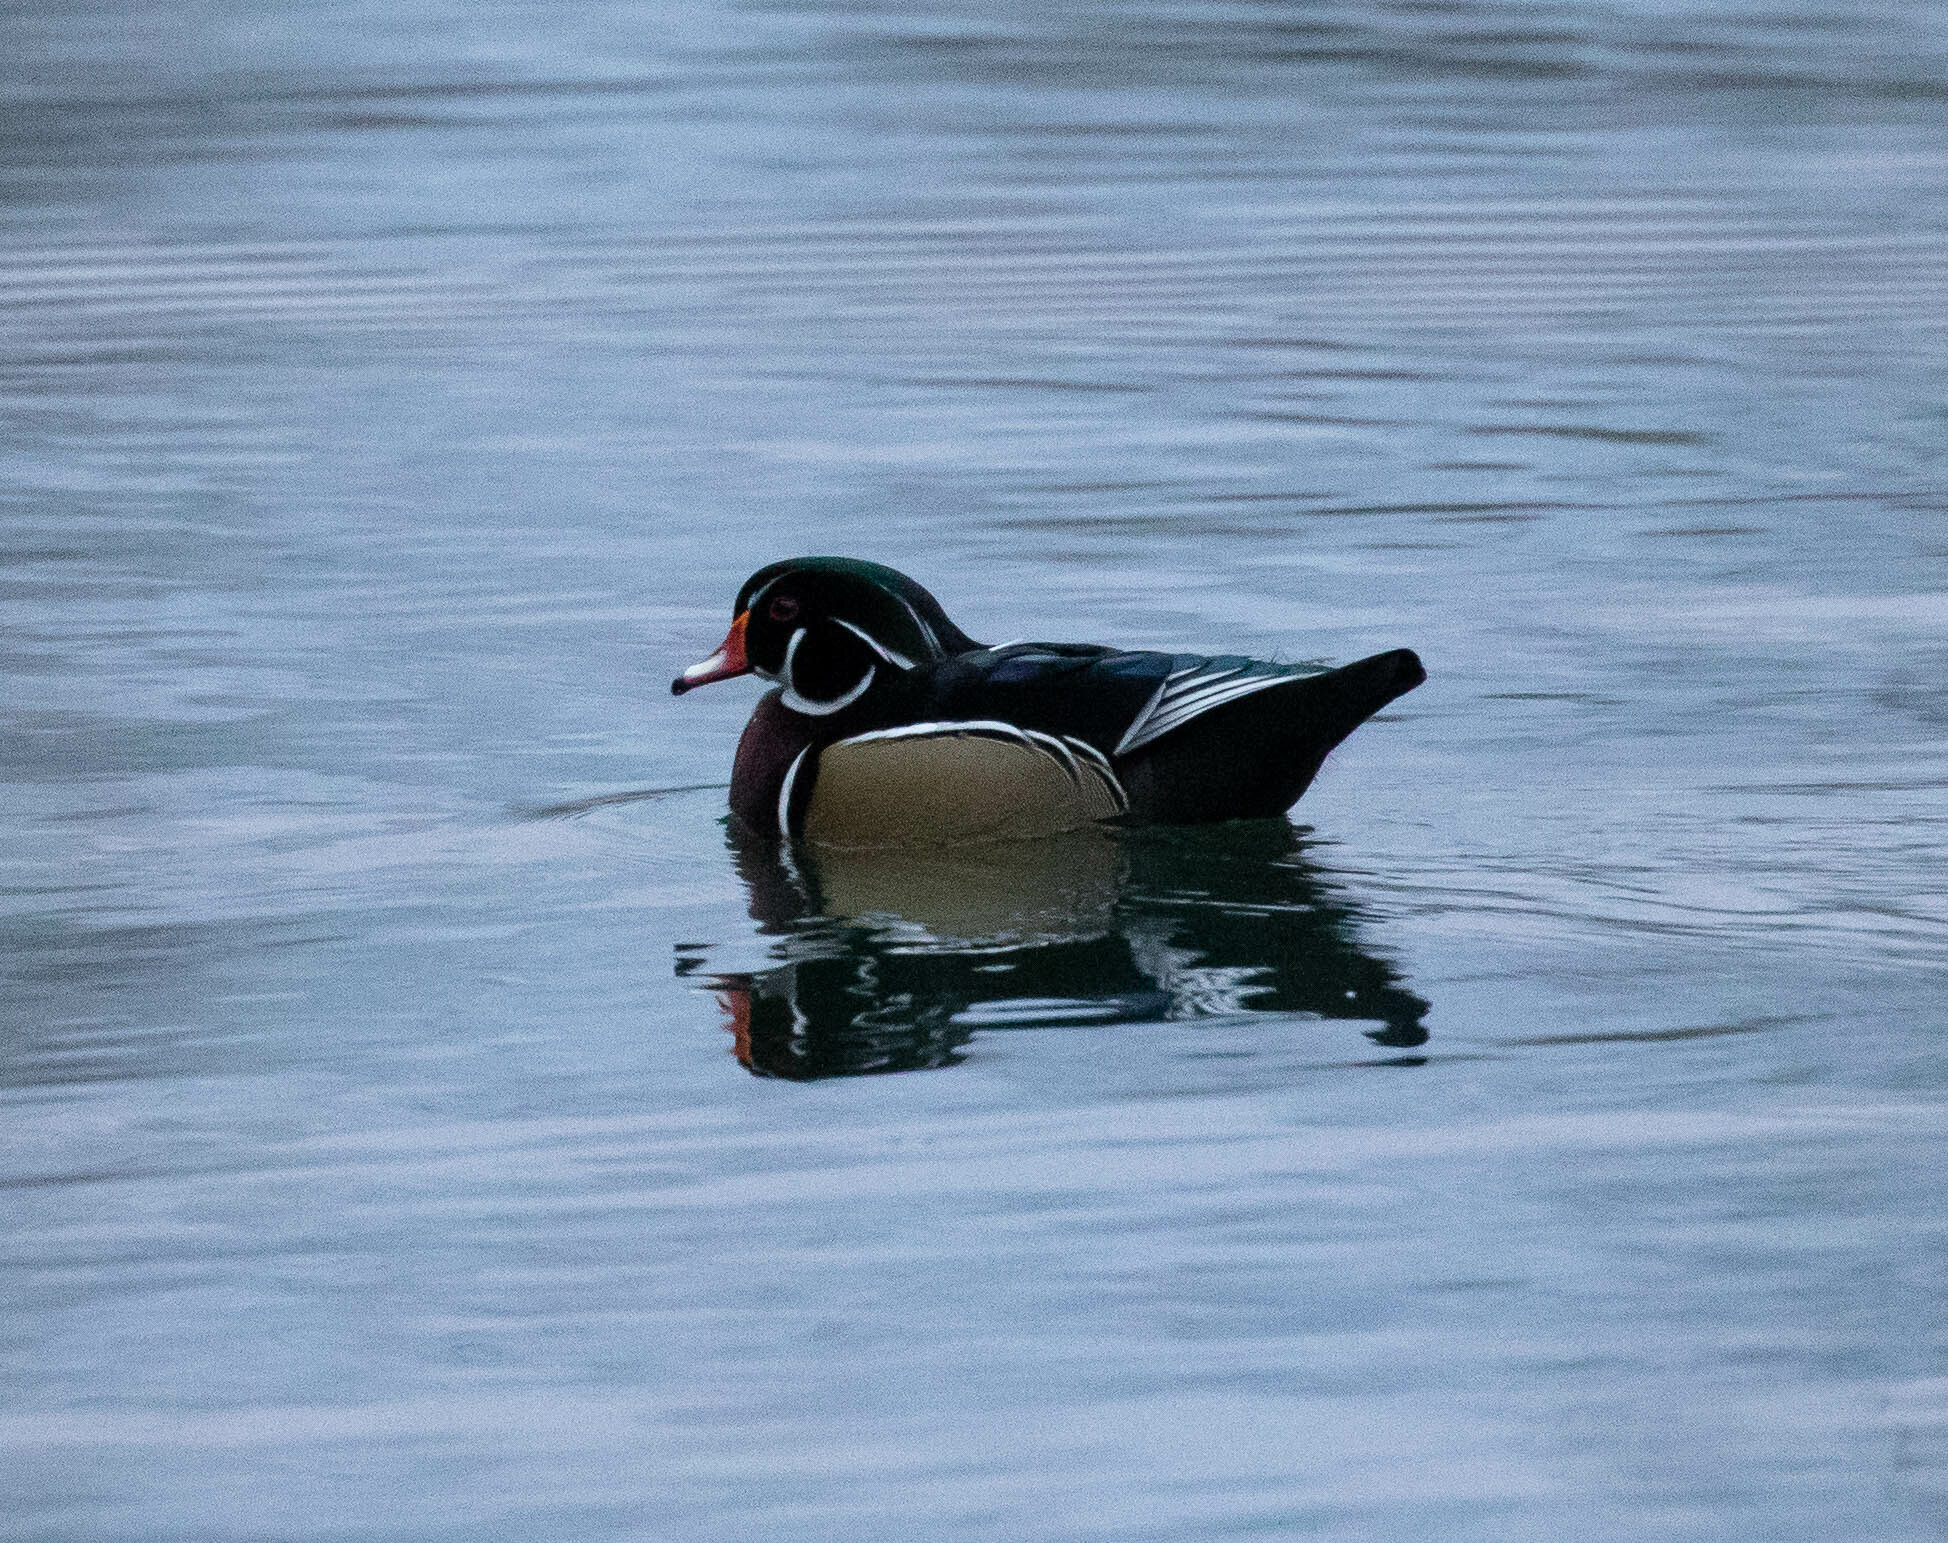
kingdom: Animalia
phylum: Chordata
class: Aves
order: Anseriformes
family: Anatidae
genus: Aix
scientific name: Aix sponsa
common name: Wood duck
